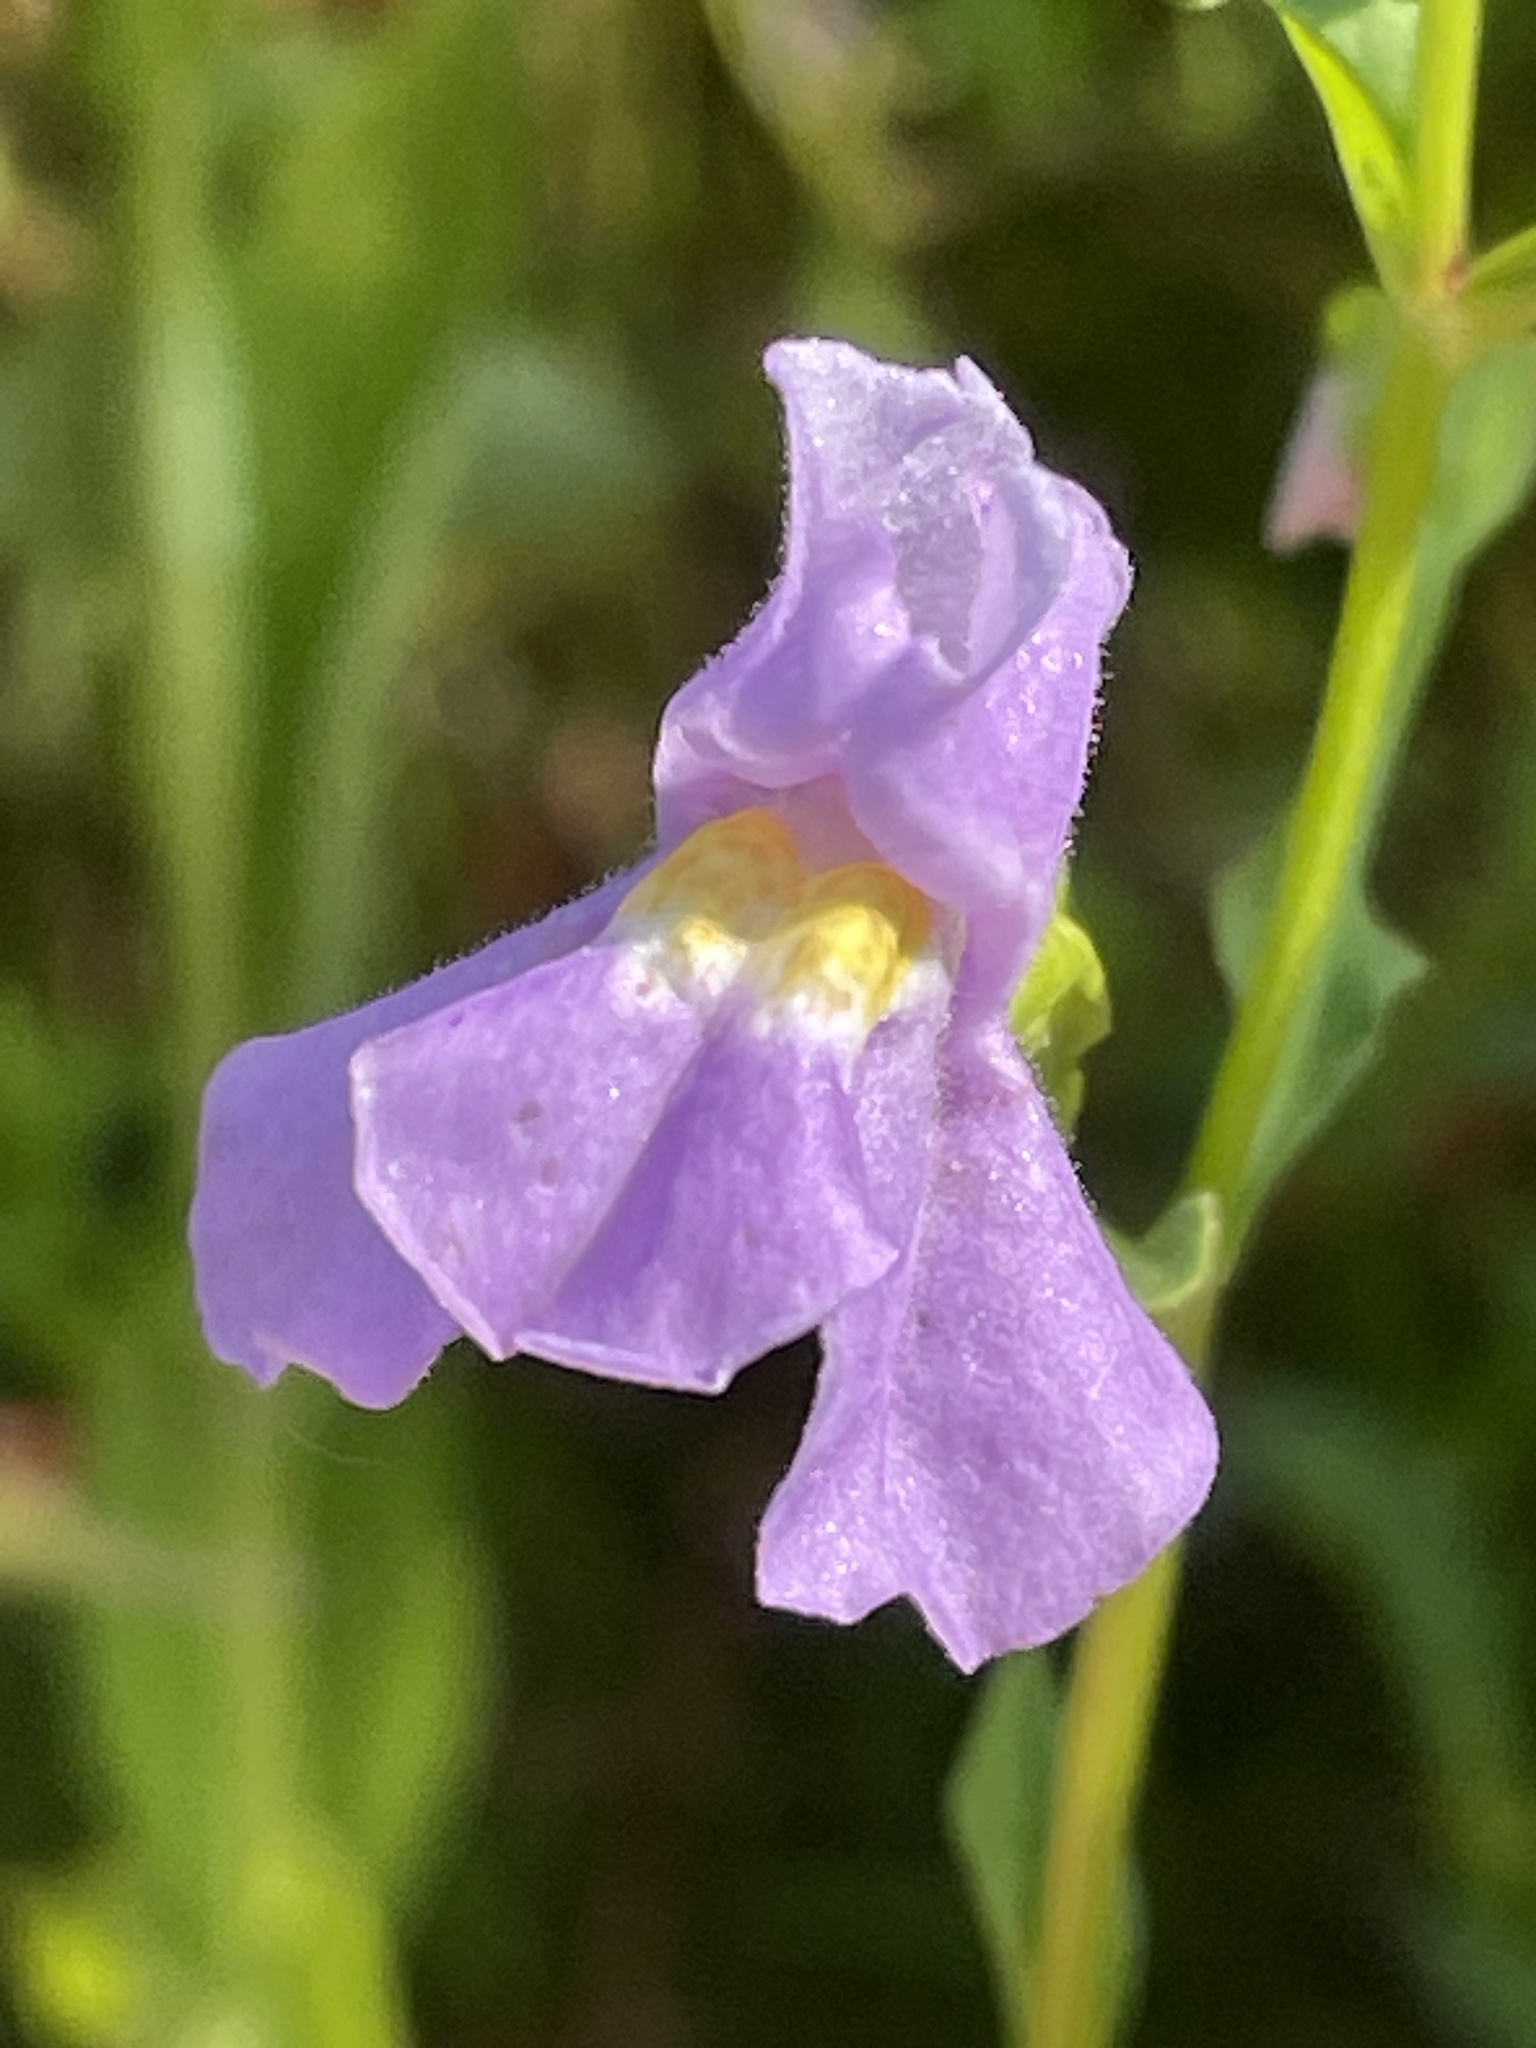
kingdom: Plantae
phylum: Tracheophyta
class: Magnoliopsida
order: Lamiales
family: Phrymaceae
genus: Mimulus
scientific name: Mimulus ringens
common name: Allegheny monkeyflower
